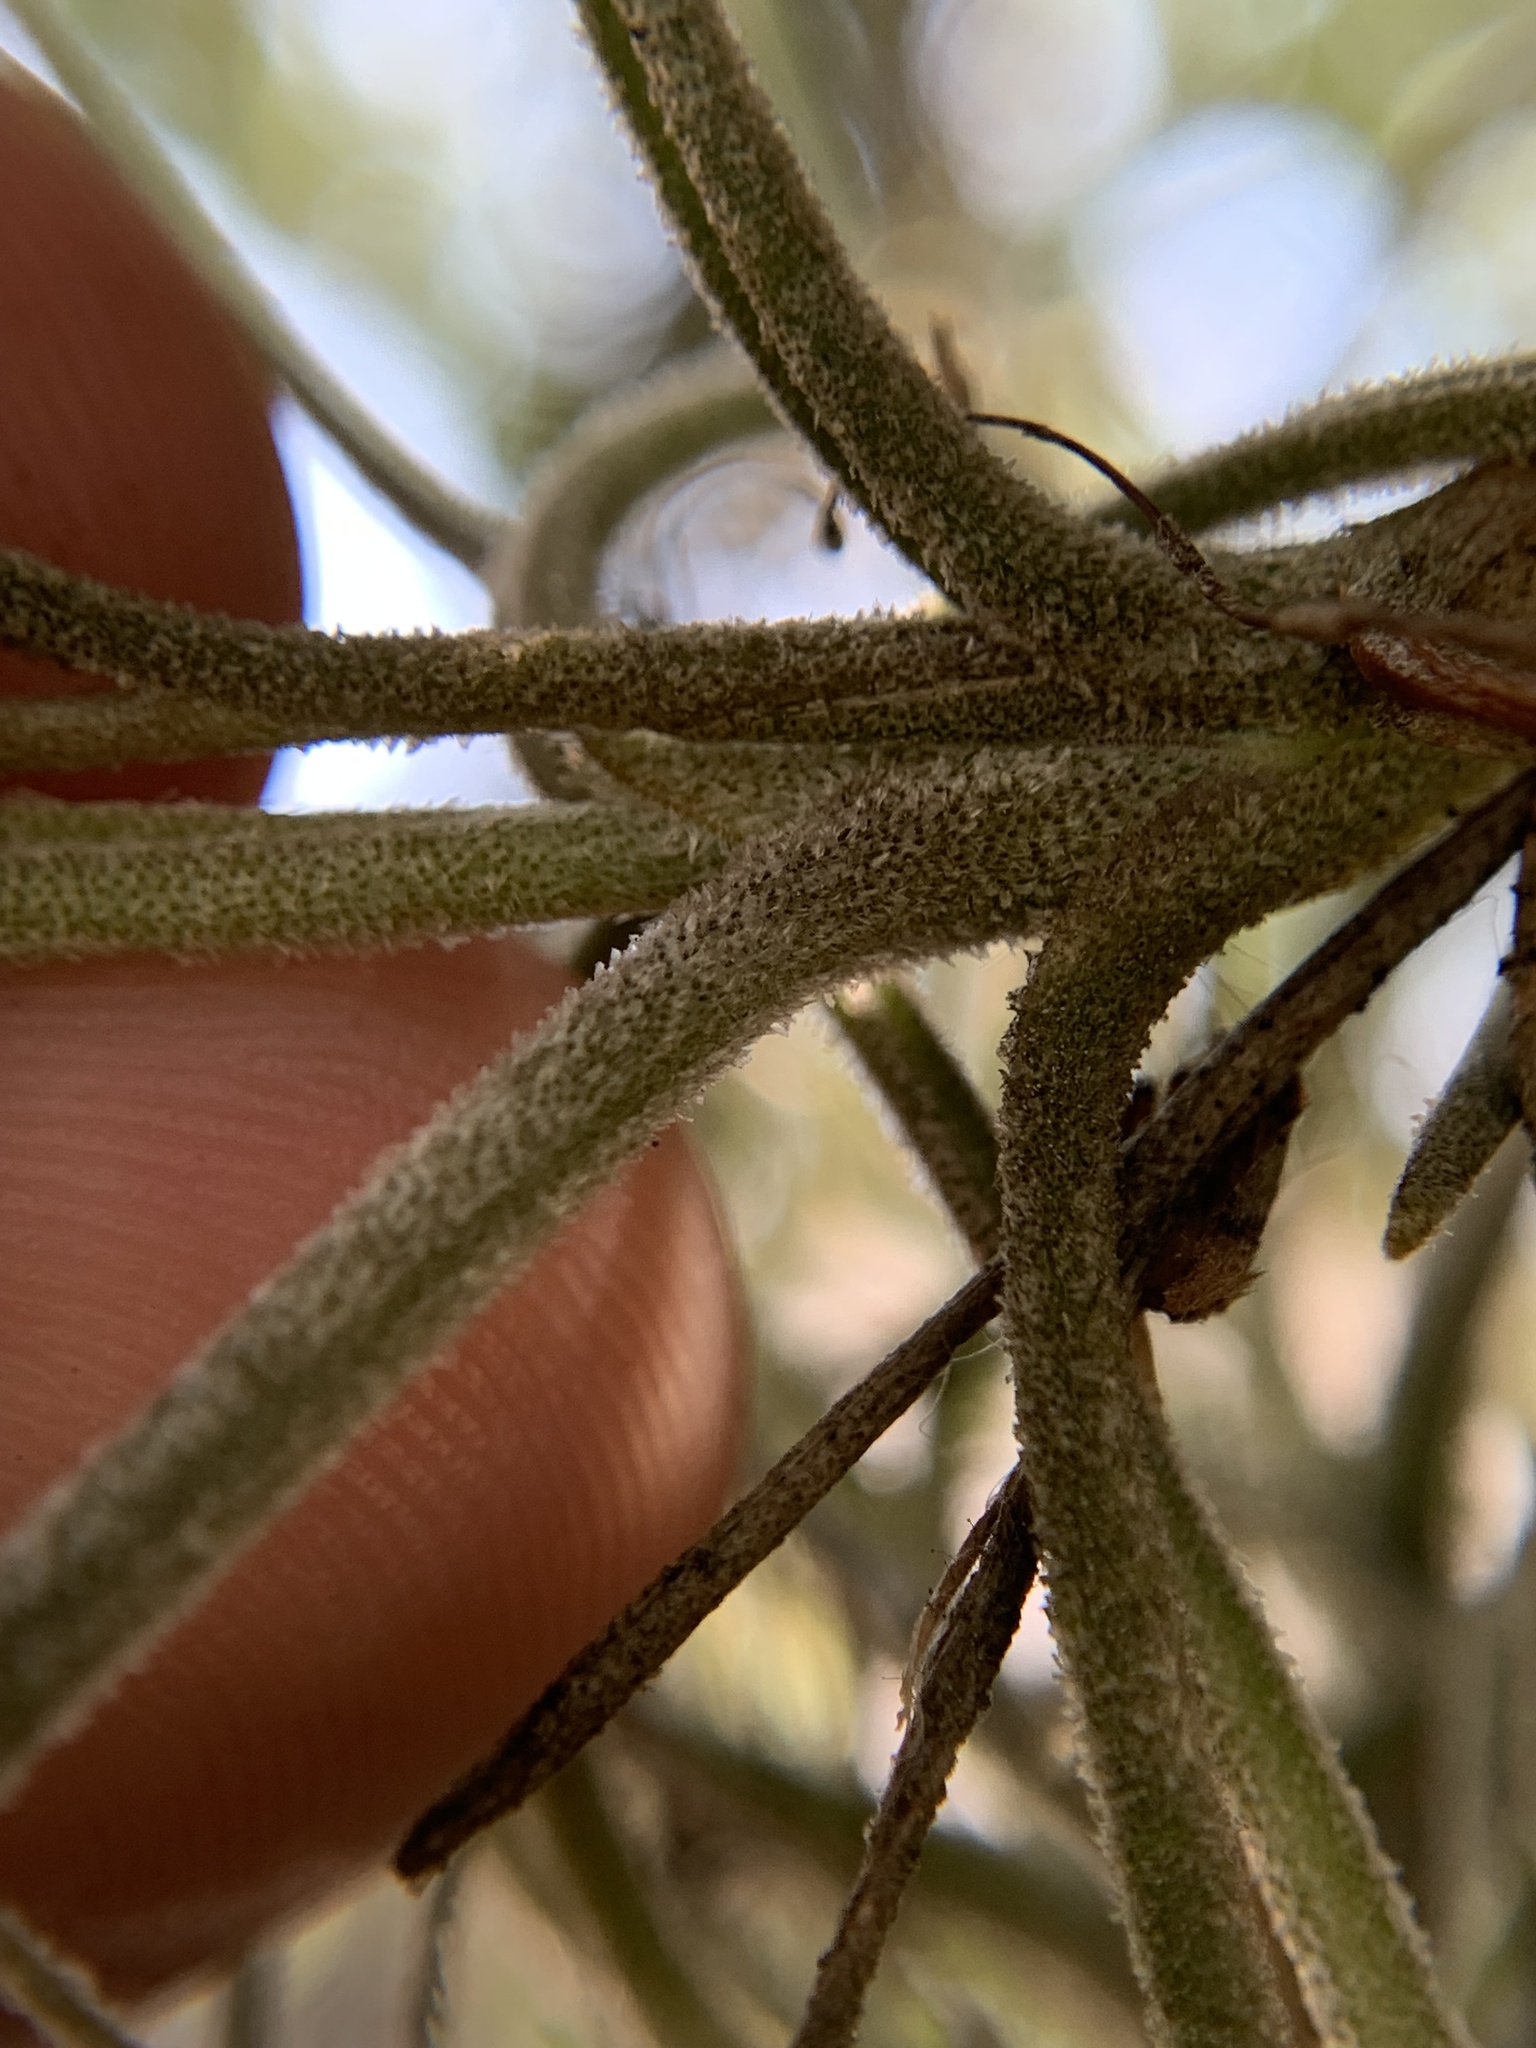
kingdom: Plantae
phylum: Tracheophyta
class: Liliopsida
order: Poales
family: Bromeliaceae
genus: Tillandsia
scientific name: Tillandsia recurvata
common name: Small ballmoss
